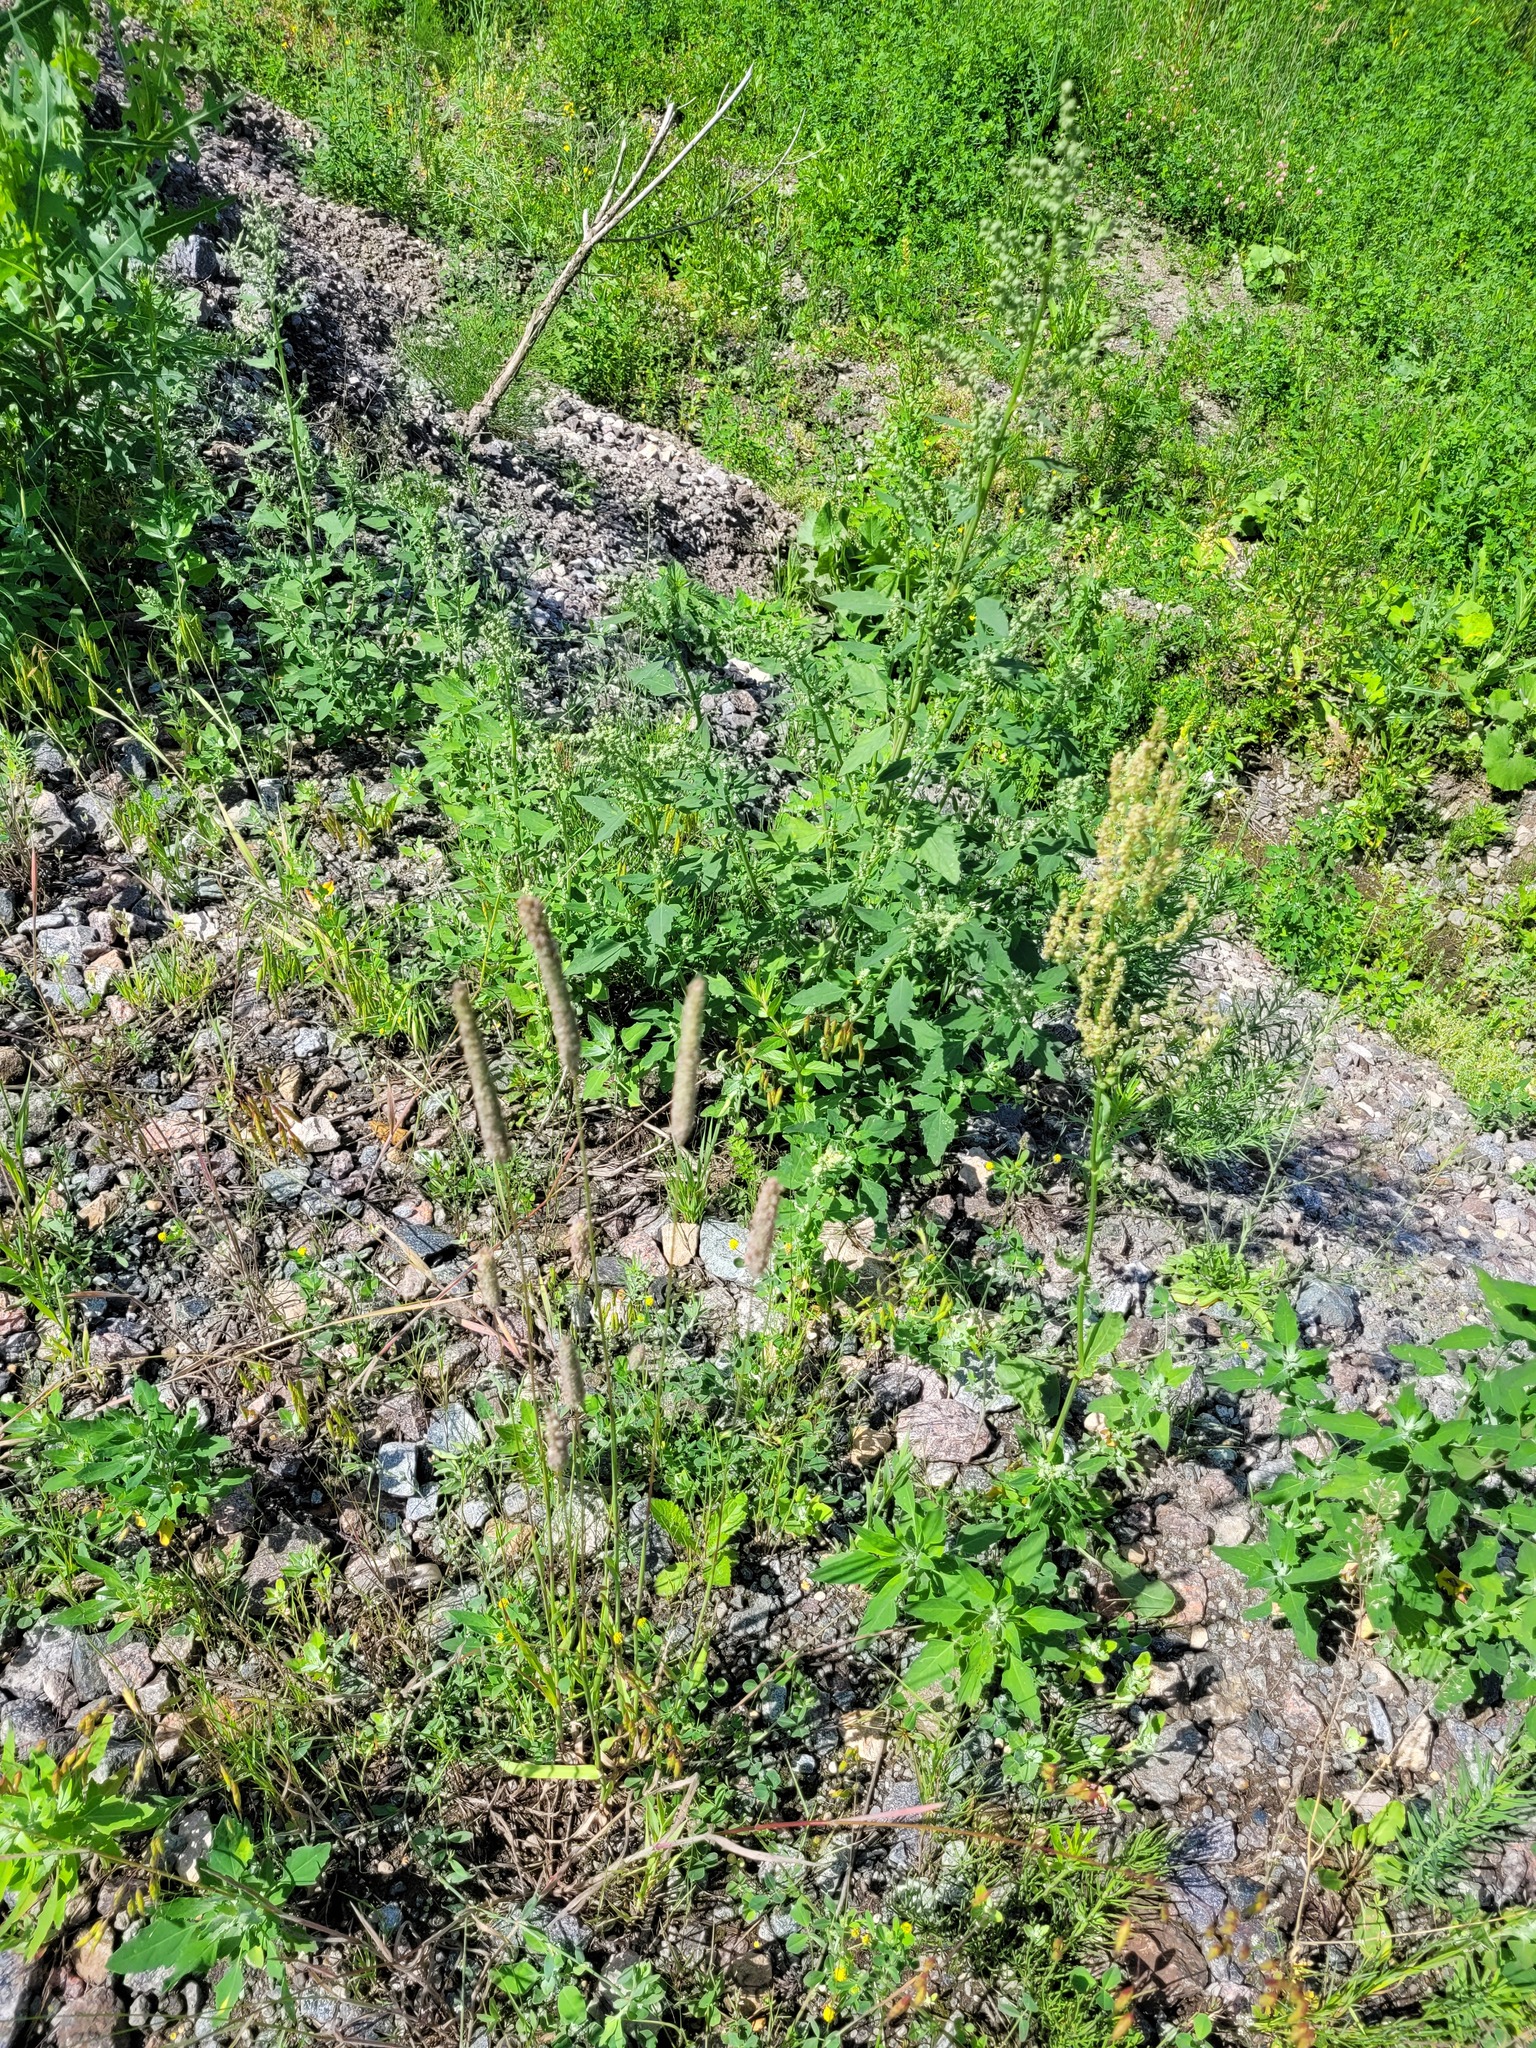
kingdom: Plantae
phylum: Tracheophyta
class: Liliopsida
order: Poales
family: Poaceae
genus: Phleum
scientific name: Phleum pratense
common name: Timothy grass
